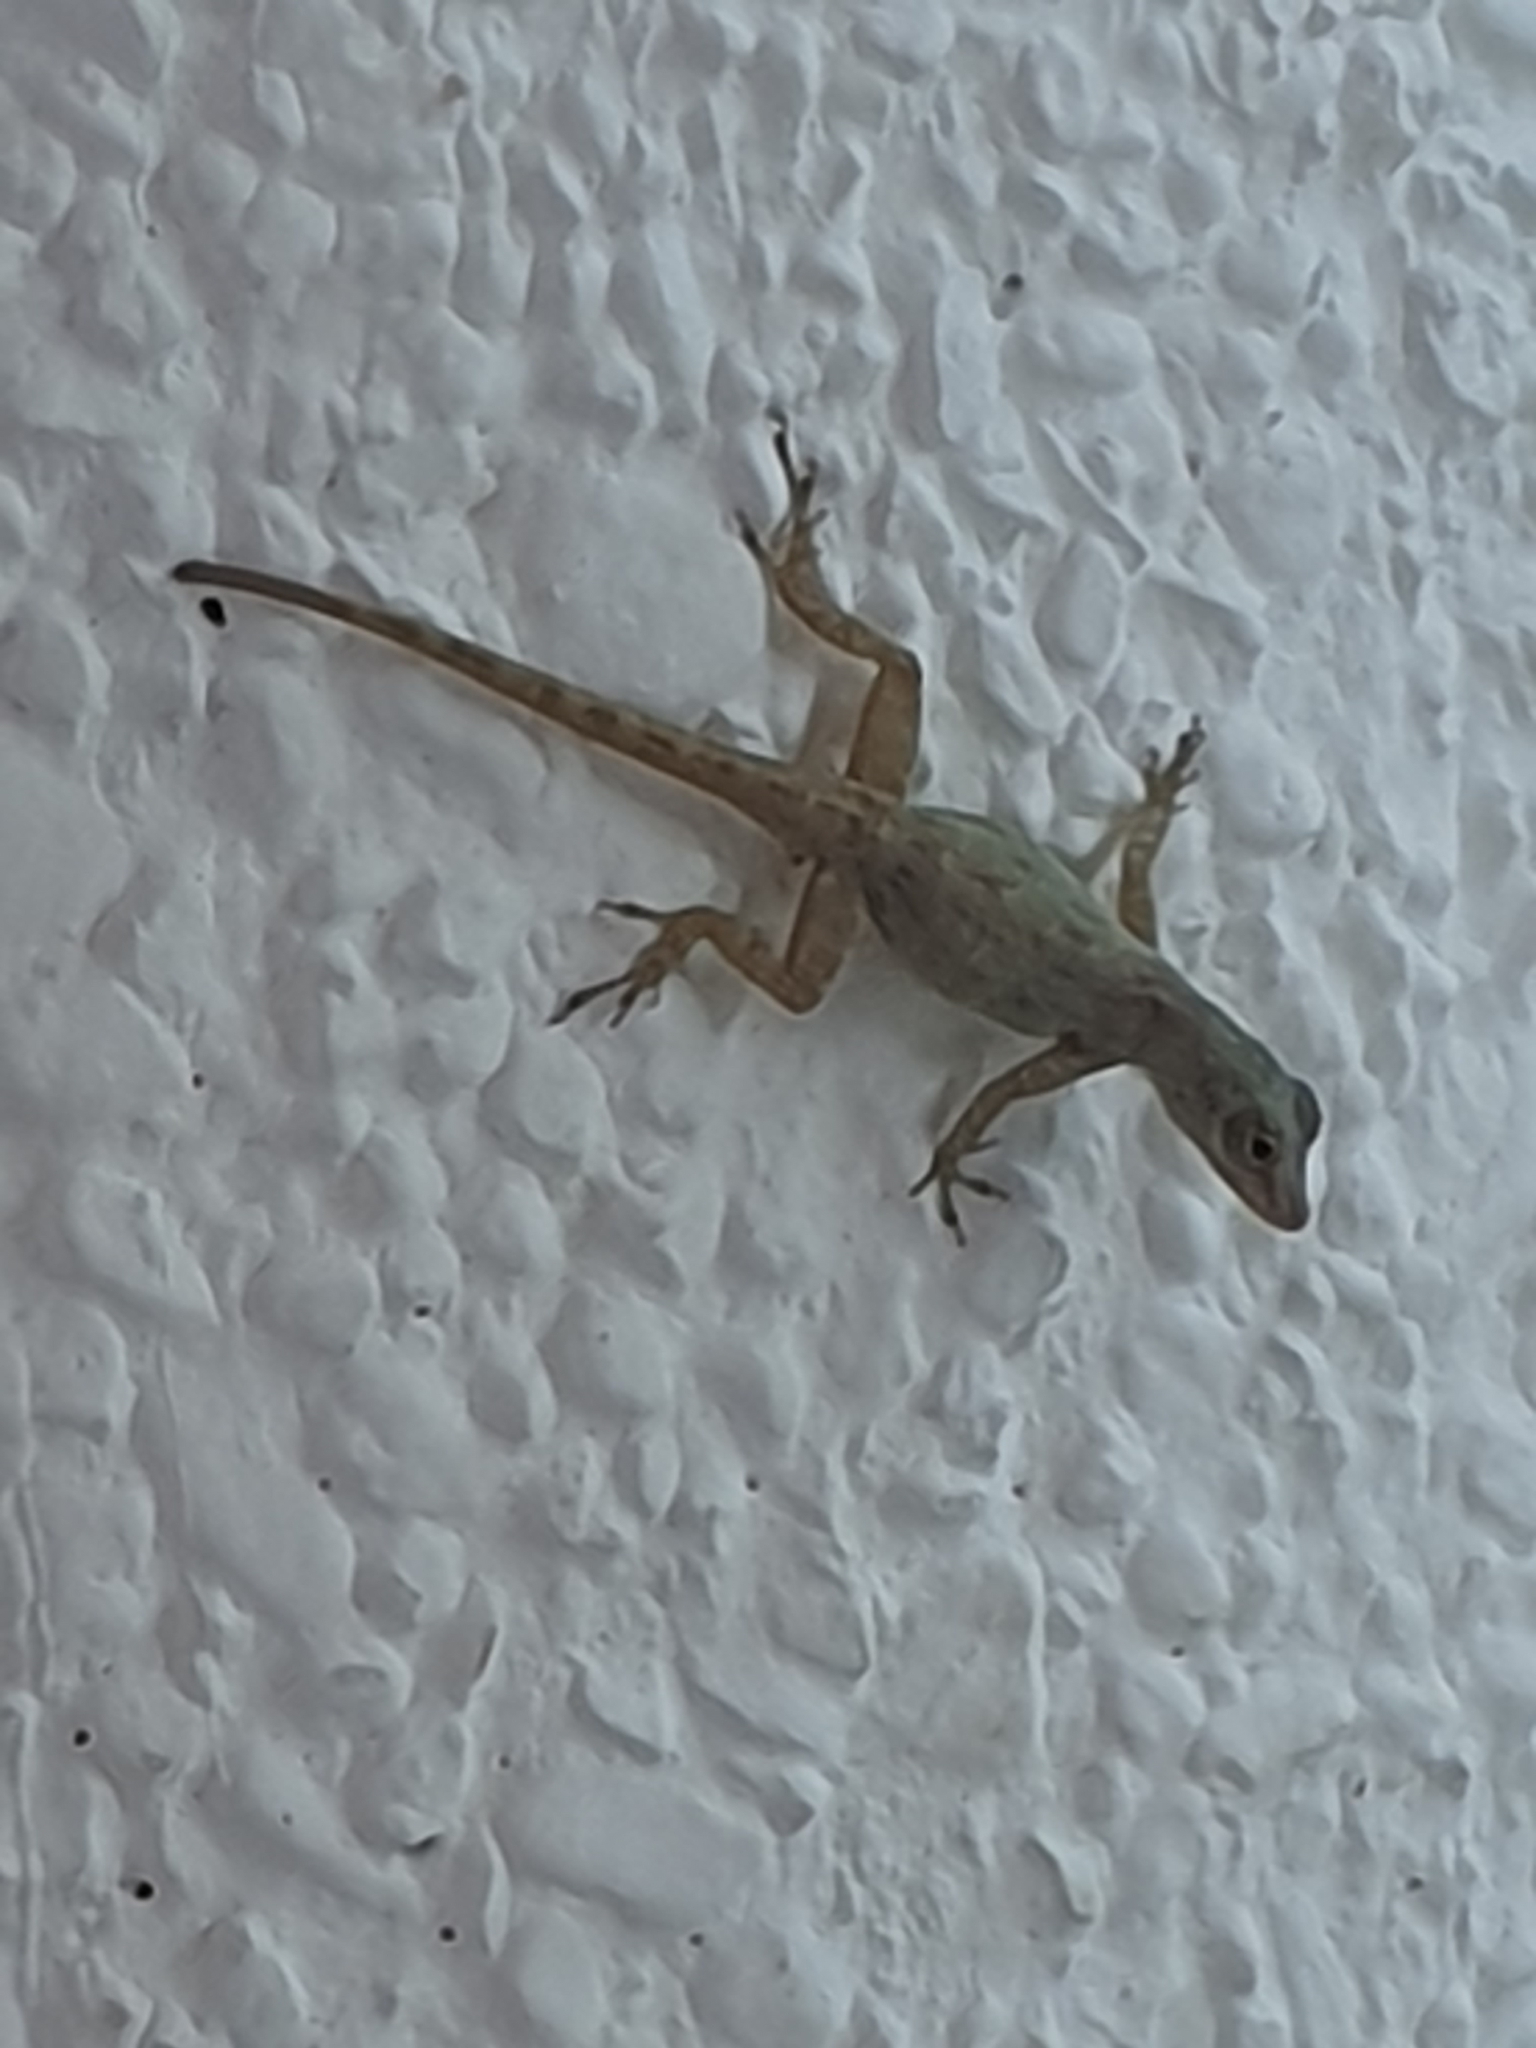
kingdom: Animalia
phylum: Chordata
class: Squamata
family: Dactyloidae
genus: Anolis
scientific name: Anolis distichus
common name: Bark anole
